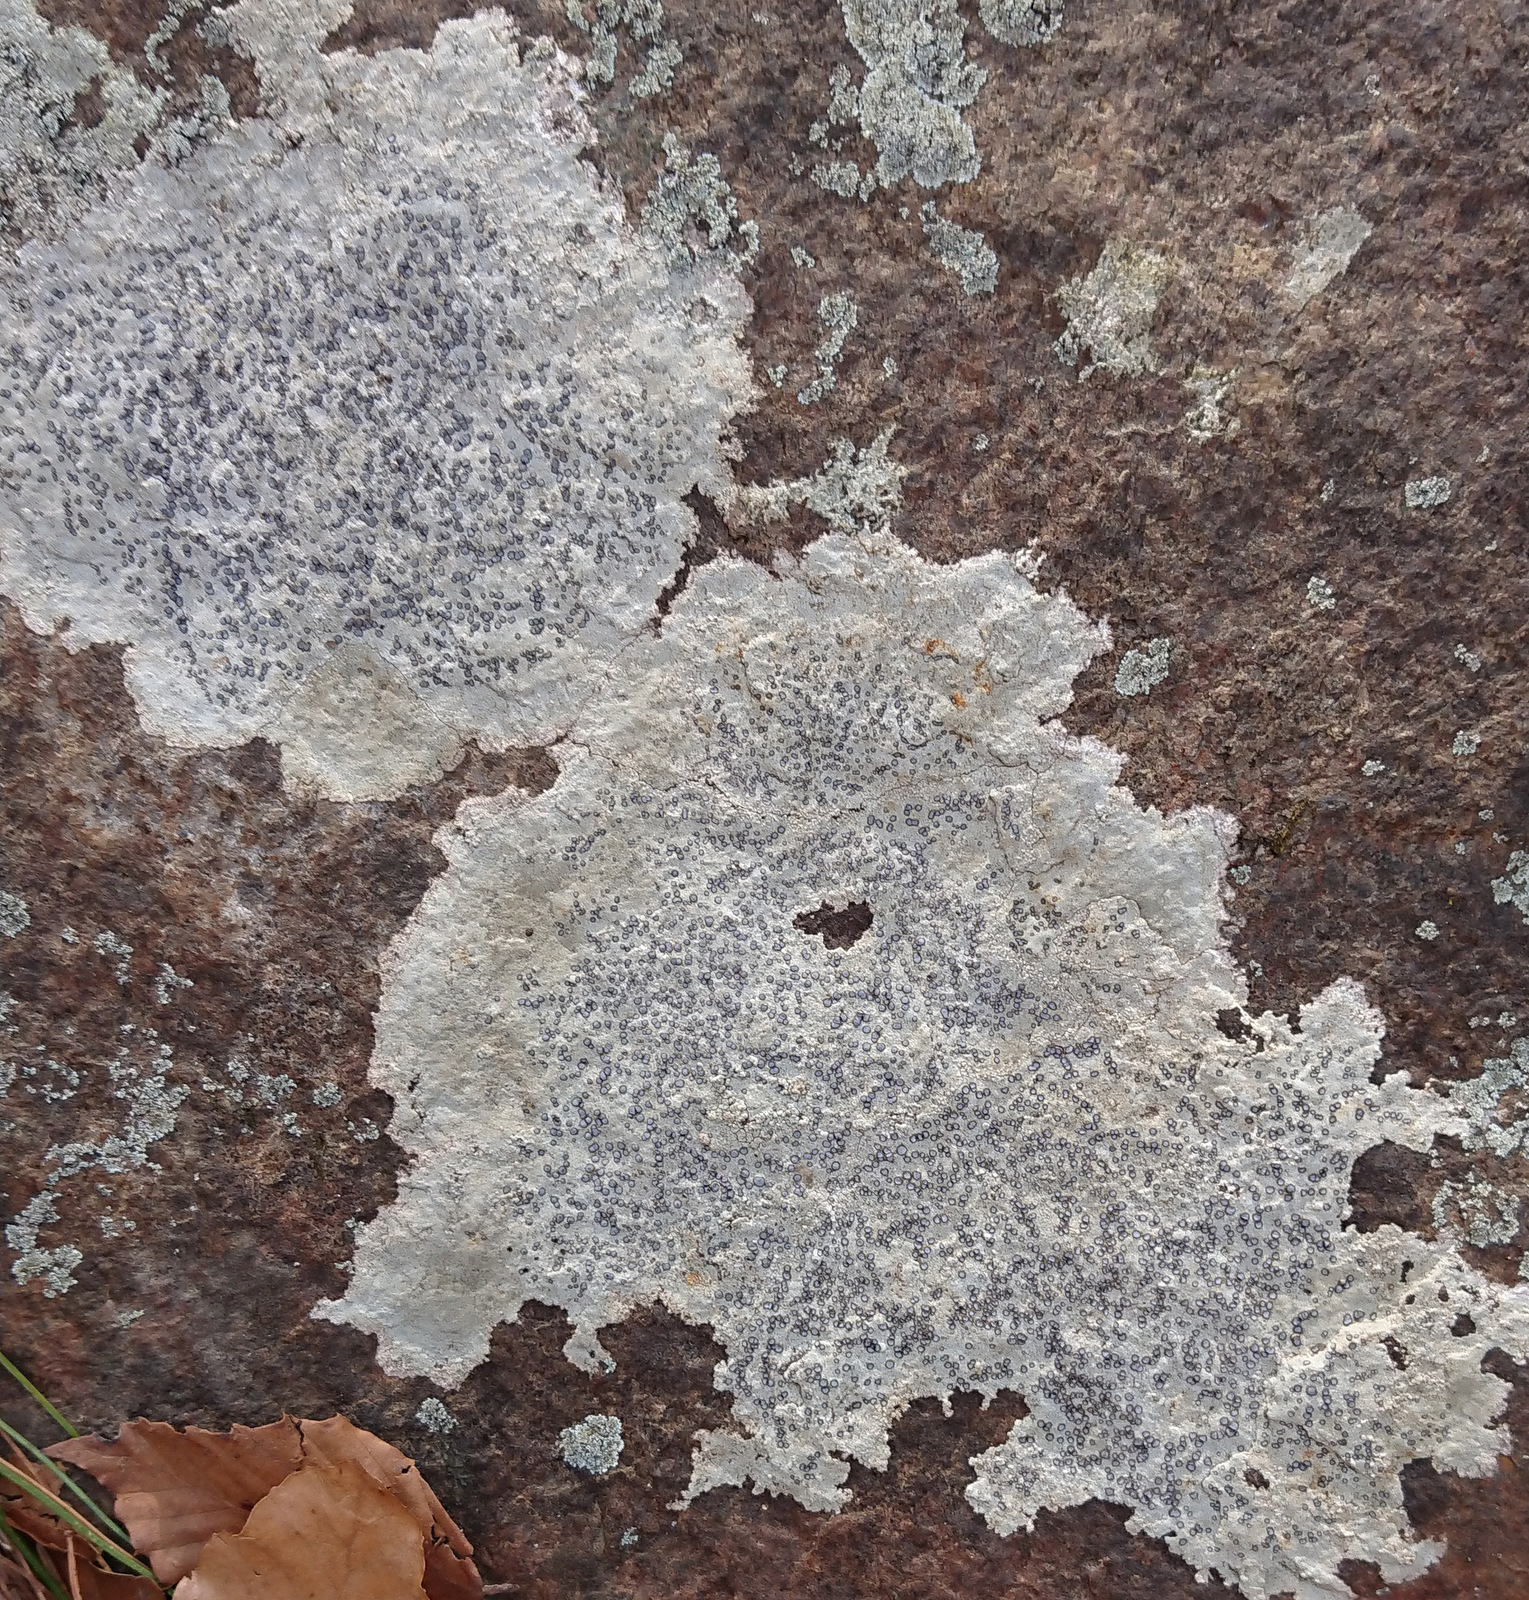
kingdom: Fungi
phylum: Ascomycota
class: Lecanoromycetes
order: Lecideales
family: Lecideaceae
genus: Porpidia
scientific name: Porpidia albocaerulescens
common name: Smokey-eyed boulder lichen
